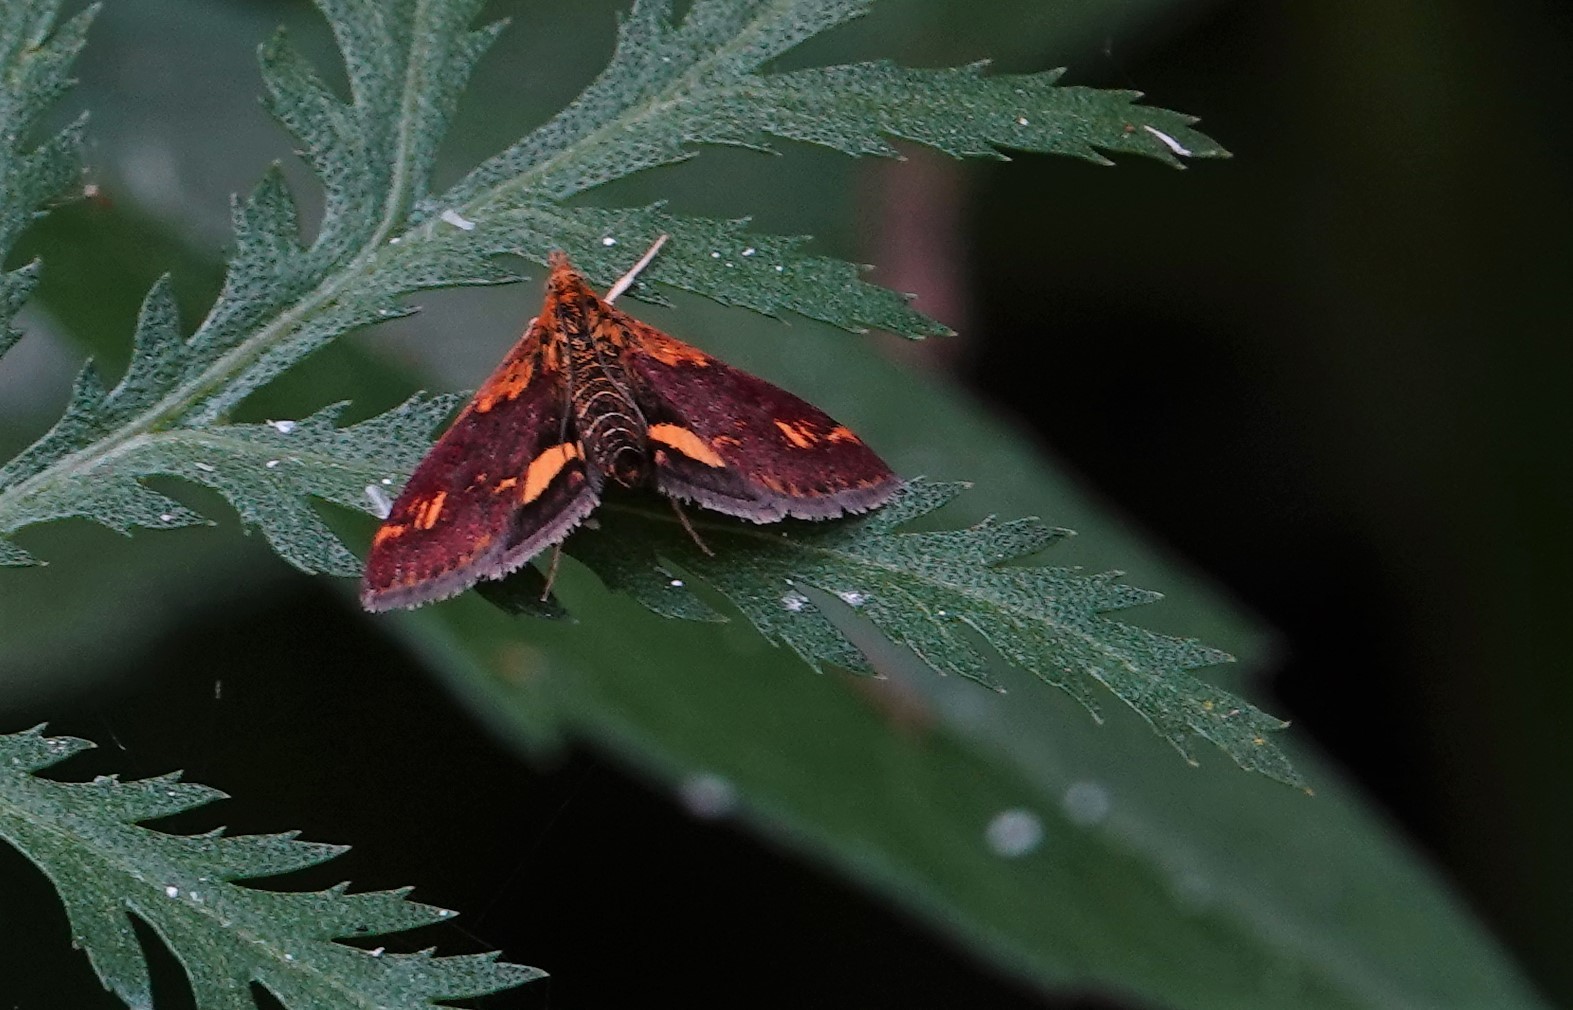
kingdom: Animalia
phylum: Arthropoda
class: Insecta
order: Lepidoptera
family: Crambidae
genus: Pyrausta
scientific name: Pyrausta orphisalis
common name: Orange mint moth
